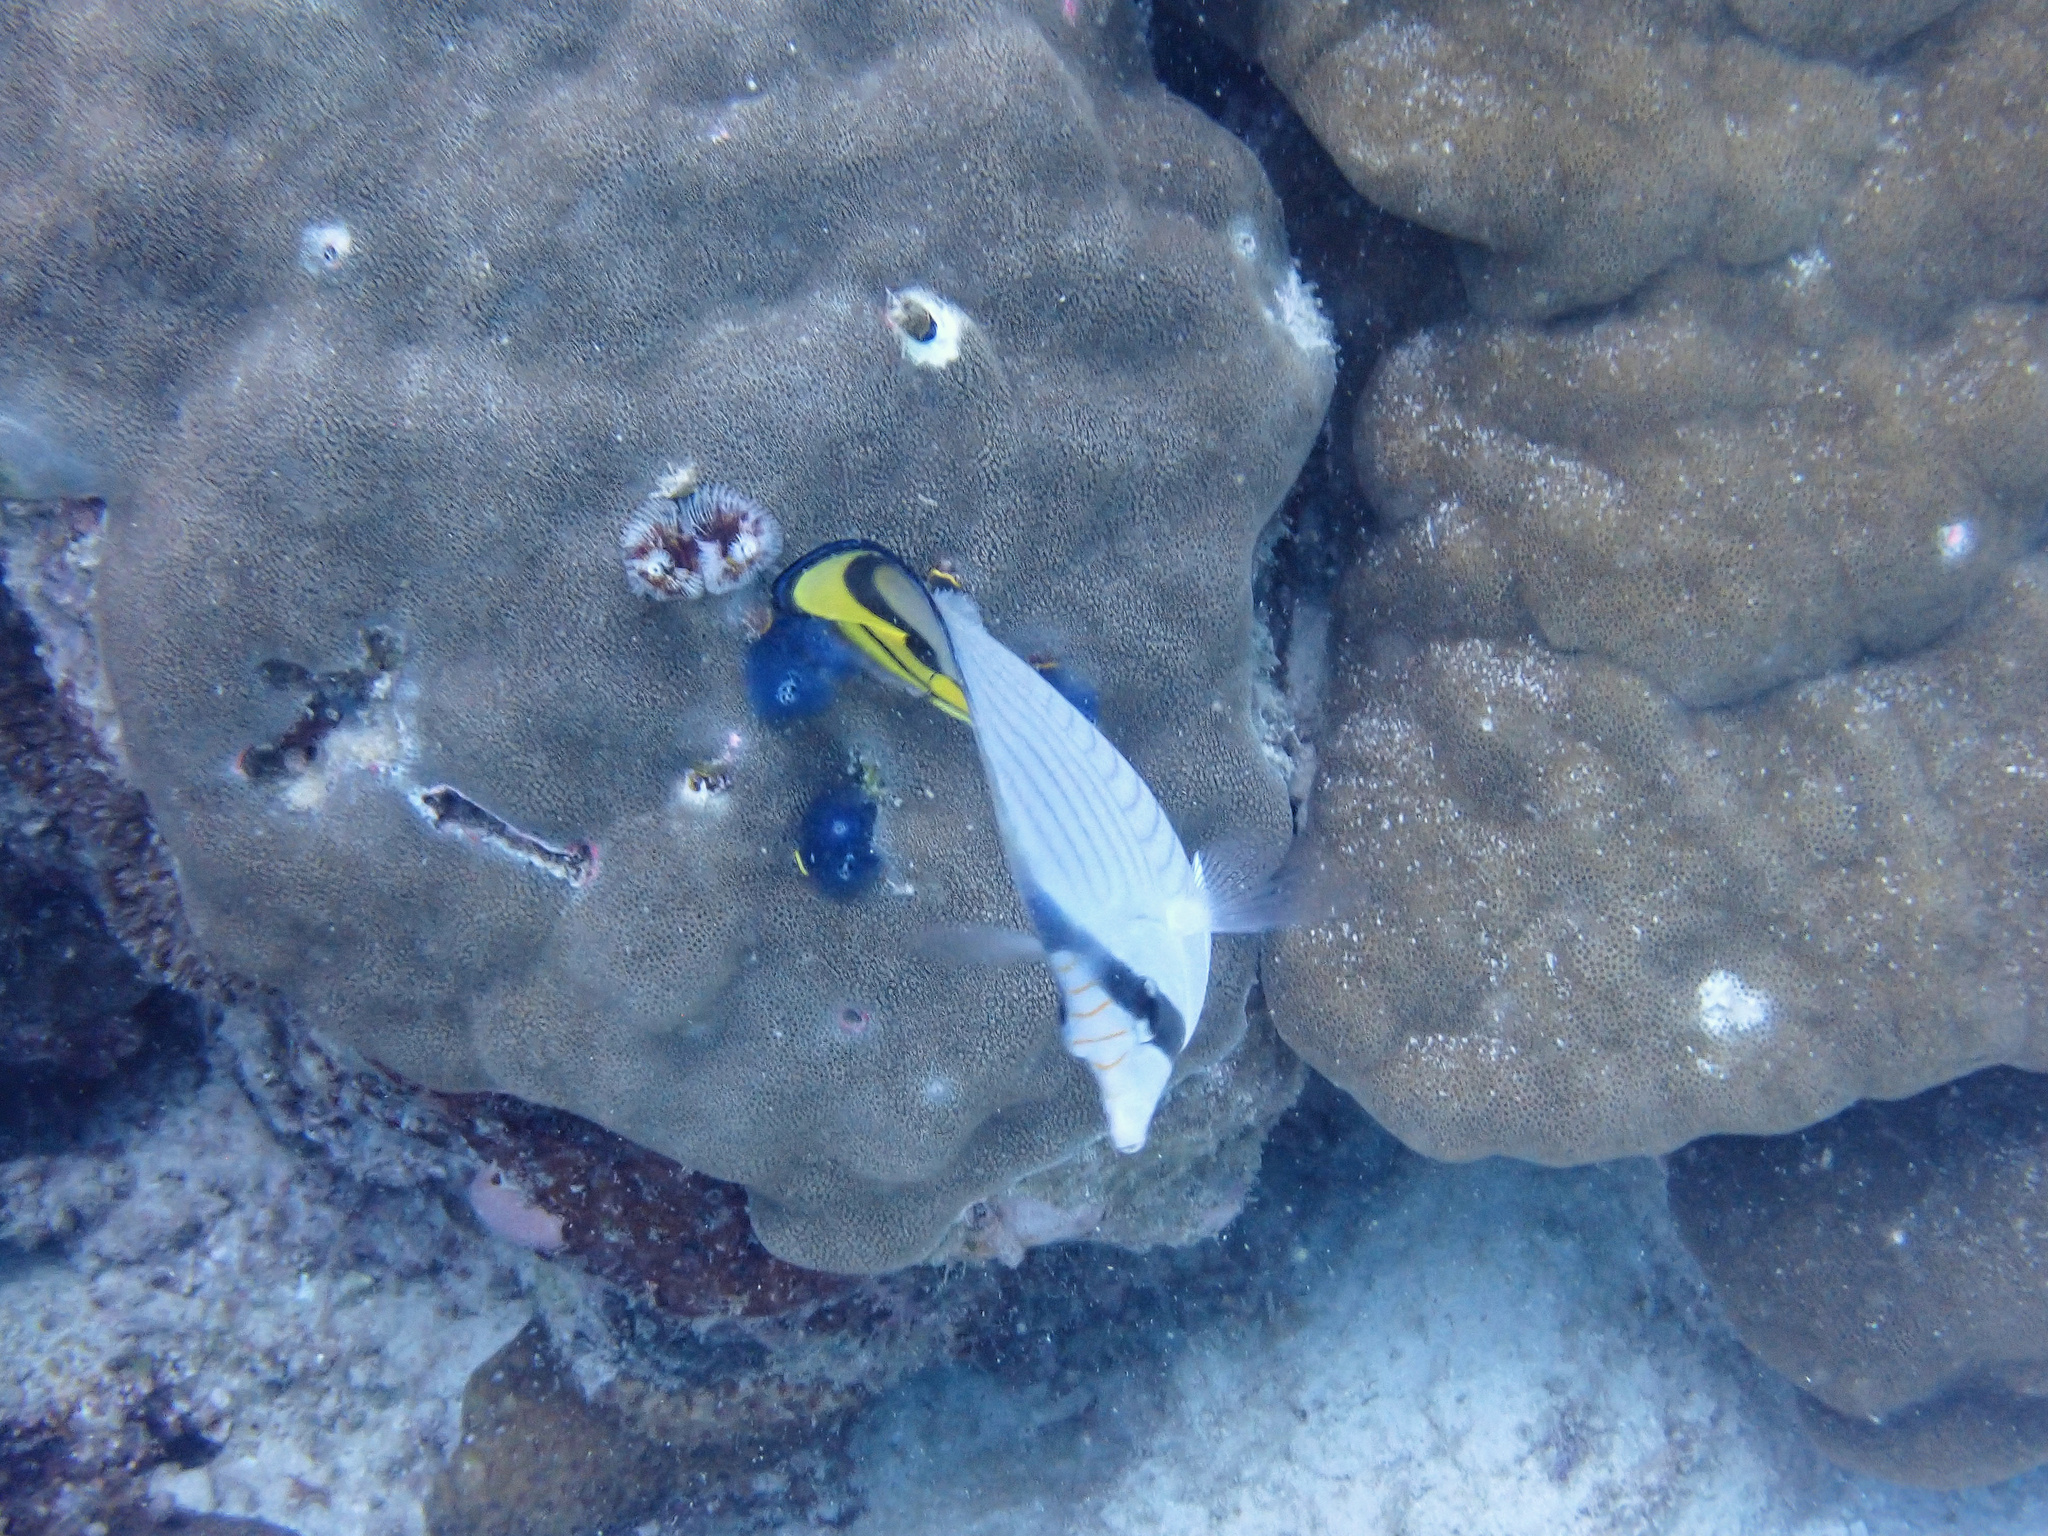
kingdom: Animalia
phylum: Chordata
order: Perciformes
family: Chaetodontidae
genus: Chaetodon
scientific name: Chaetodon vagabundus
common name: Vagabond butterflyfish
